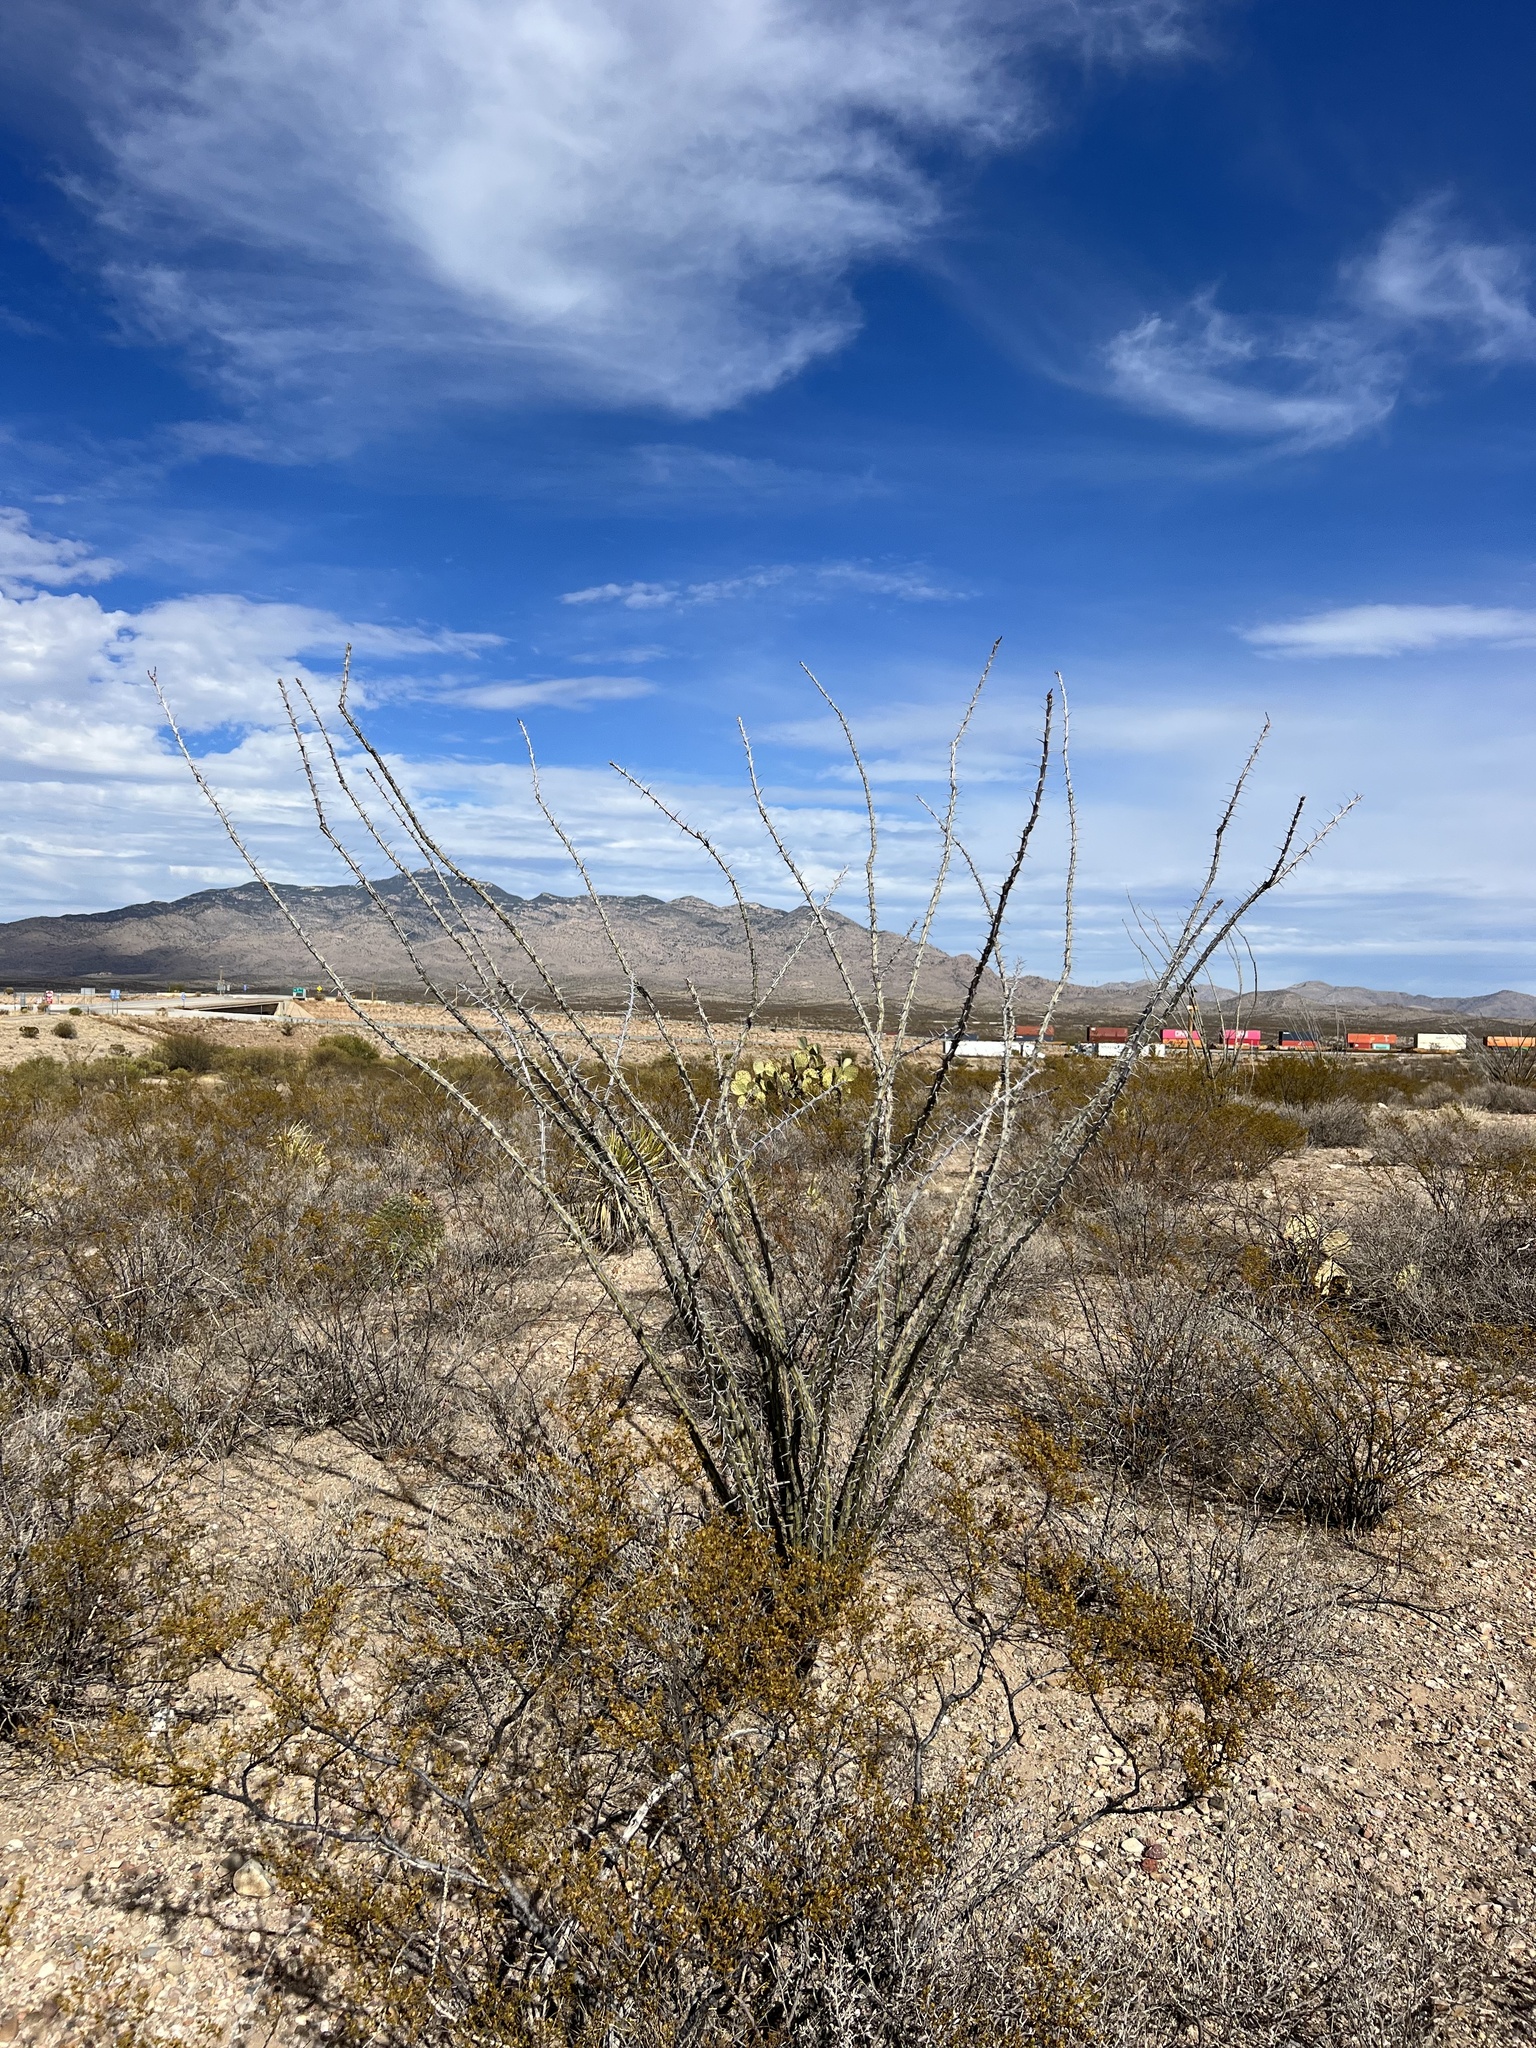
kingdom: Plantae
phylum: Tracheophyta
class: Magnoliopsida
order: Ericales
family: Fouquieriaceae
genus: Fouquieria
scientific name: Fouquieria splendens
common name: Vine-cactus
